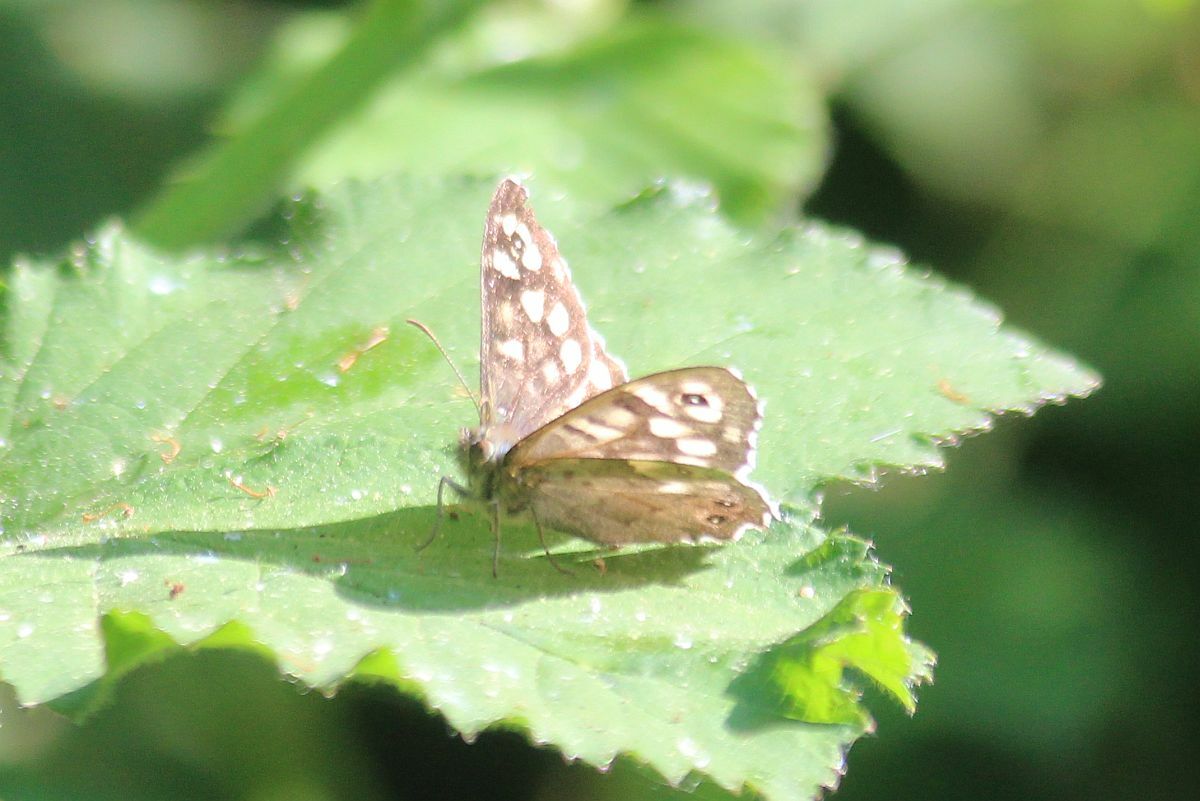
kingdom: Animalia
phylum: Arthropoda
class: Insecta
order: Lepidoptera
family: Nymphalidae
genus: Pararge
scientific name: Pararge aegeria
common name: Speckled wood
